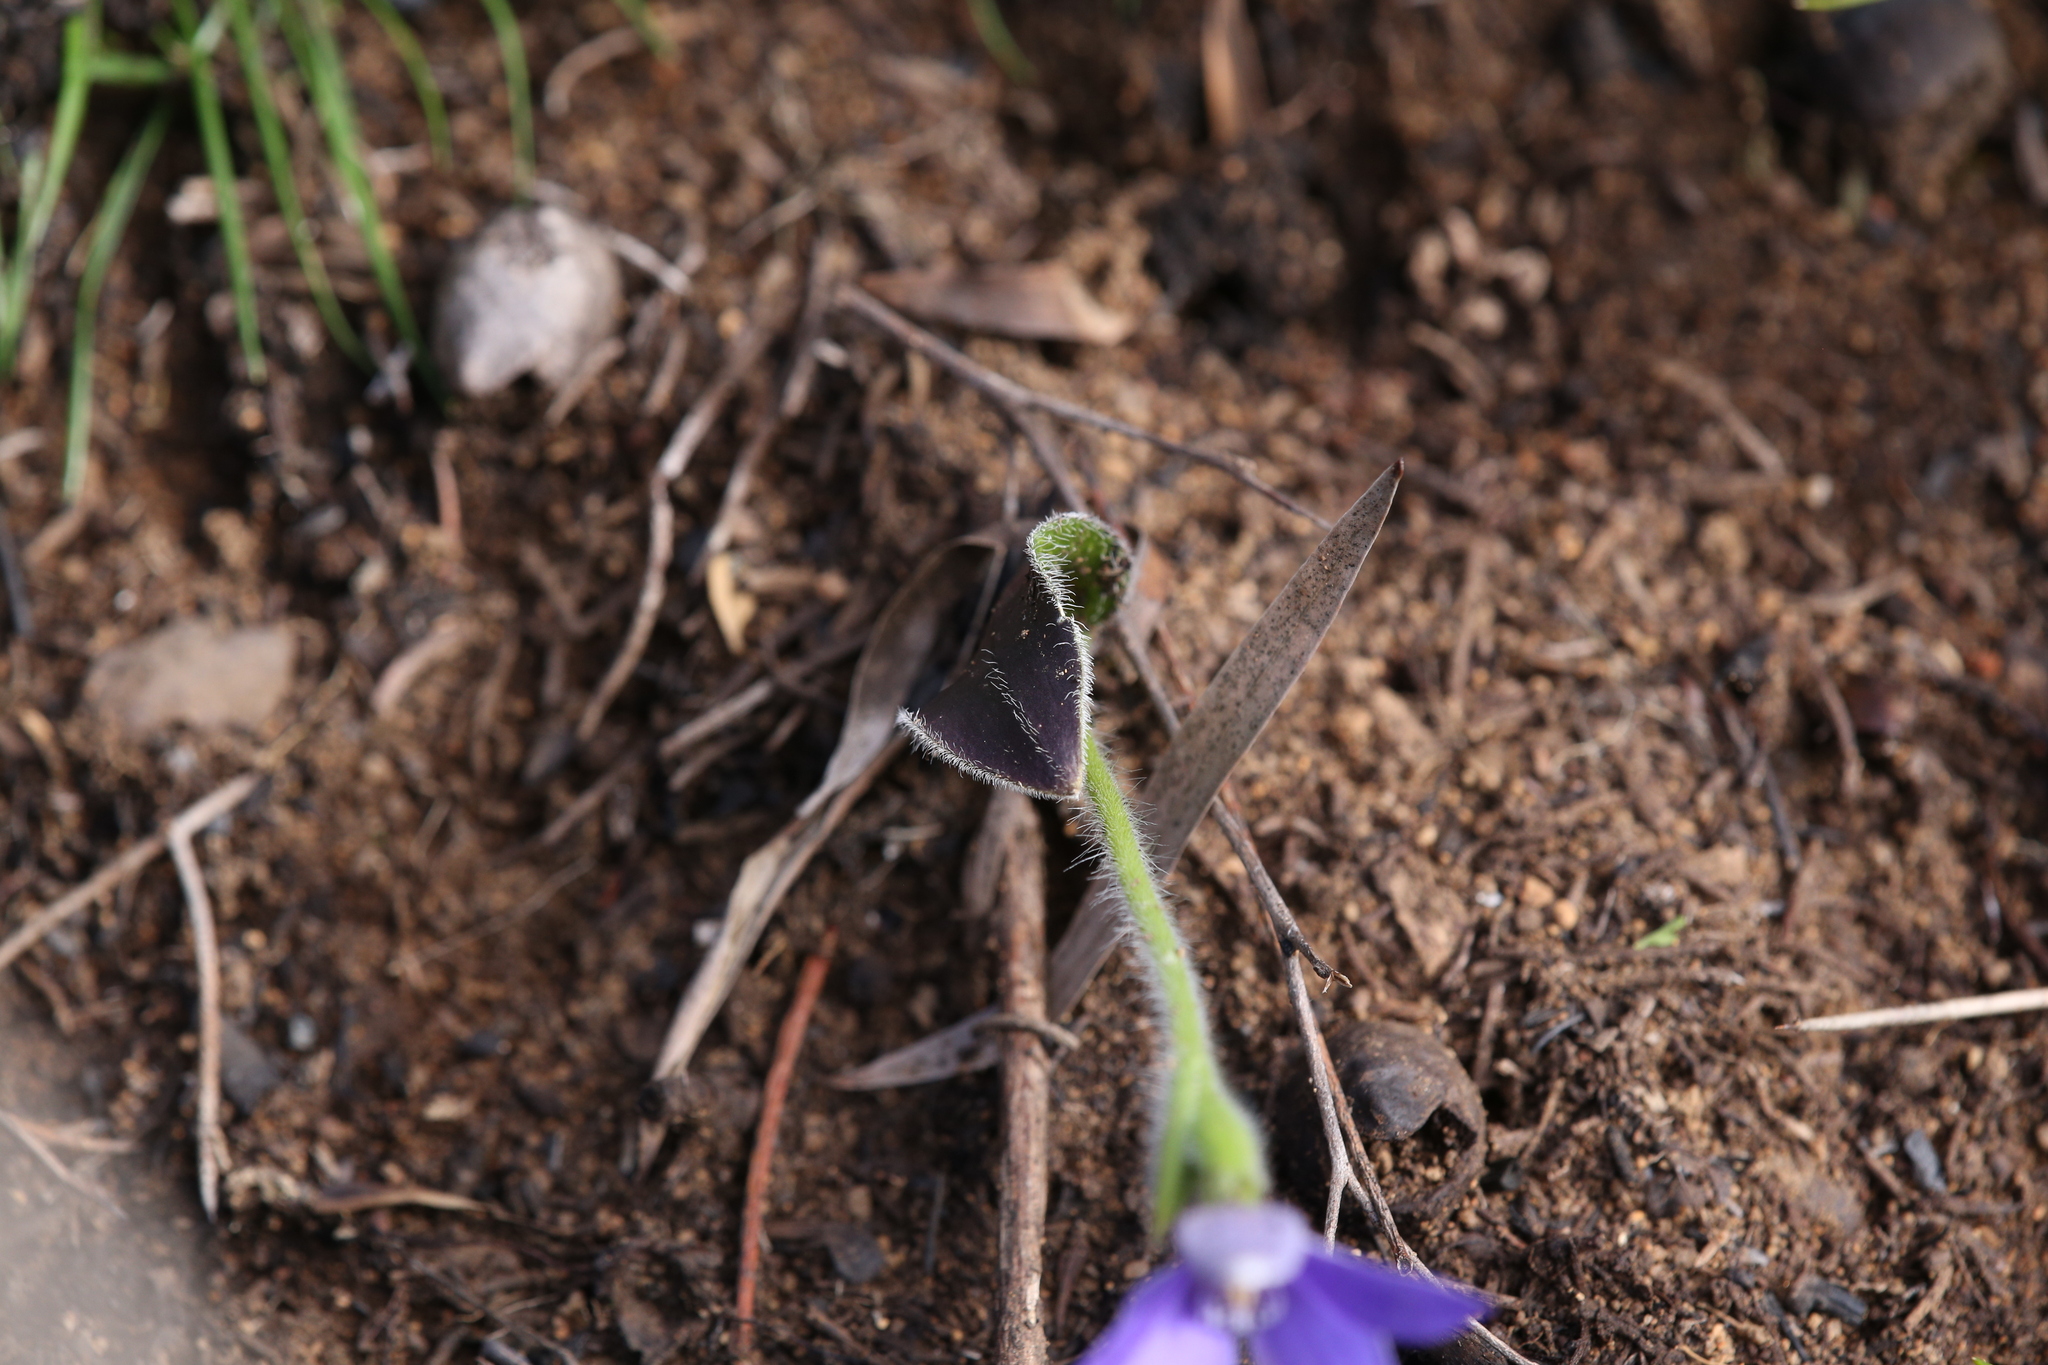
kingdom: Plantae
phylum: Tracheophyta
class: Liliopsida
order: Asparagales
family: Orchidaceae
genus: Caladenia
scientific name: Caladenia gemmata
